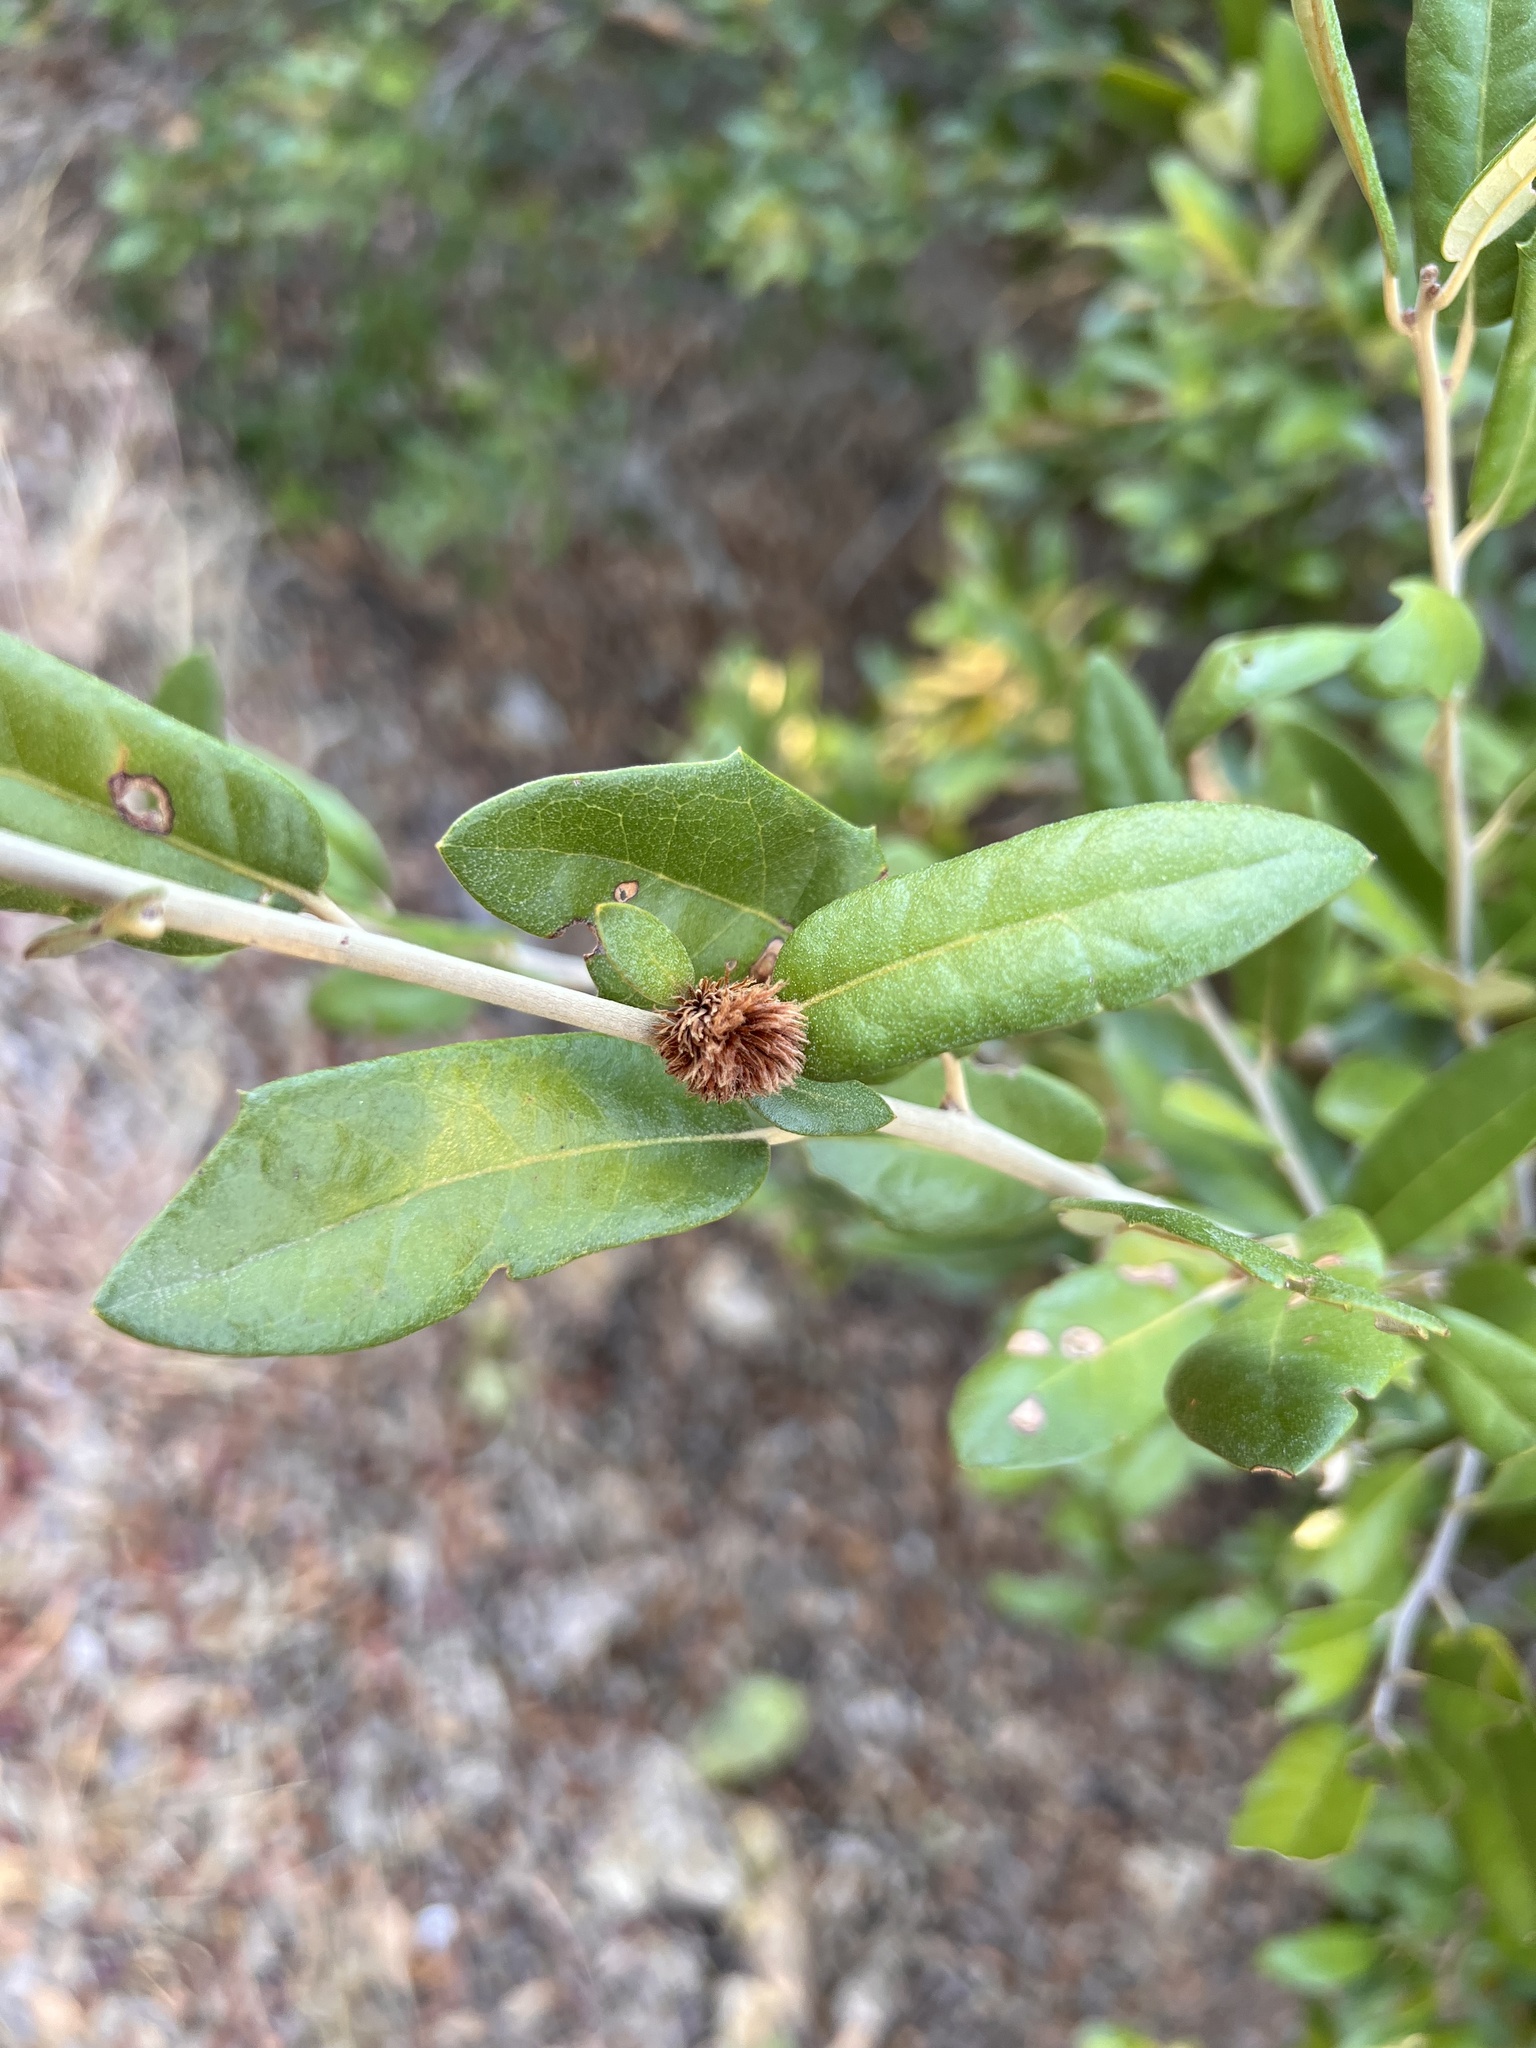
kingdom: Animalia
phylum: Arthropoda
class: Insecta
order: Hymenoptera
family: Cynipidae
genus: Andricus
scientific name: Andricus quercusfoliatus
